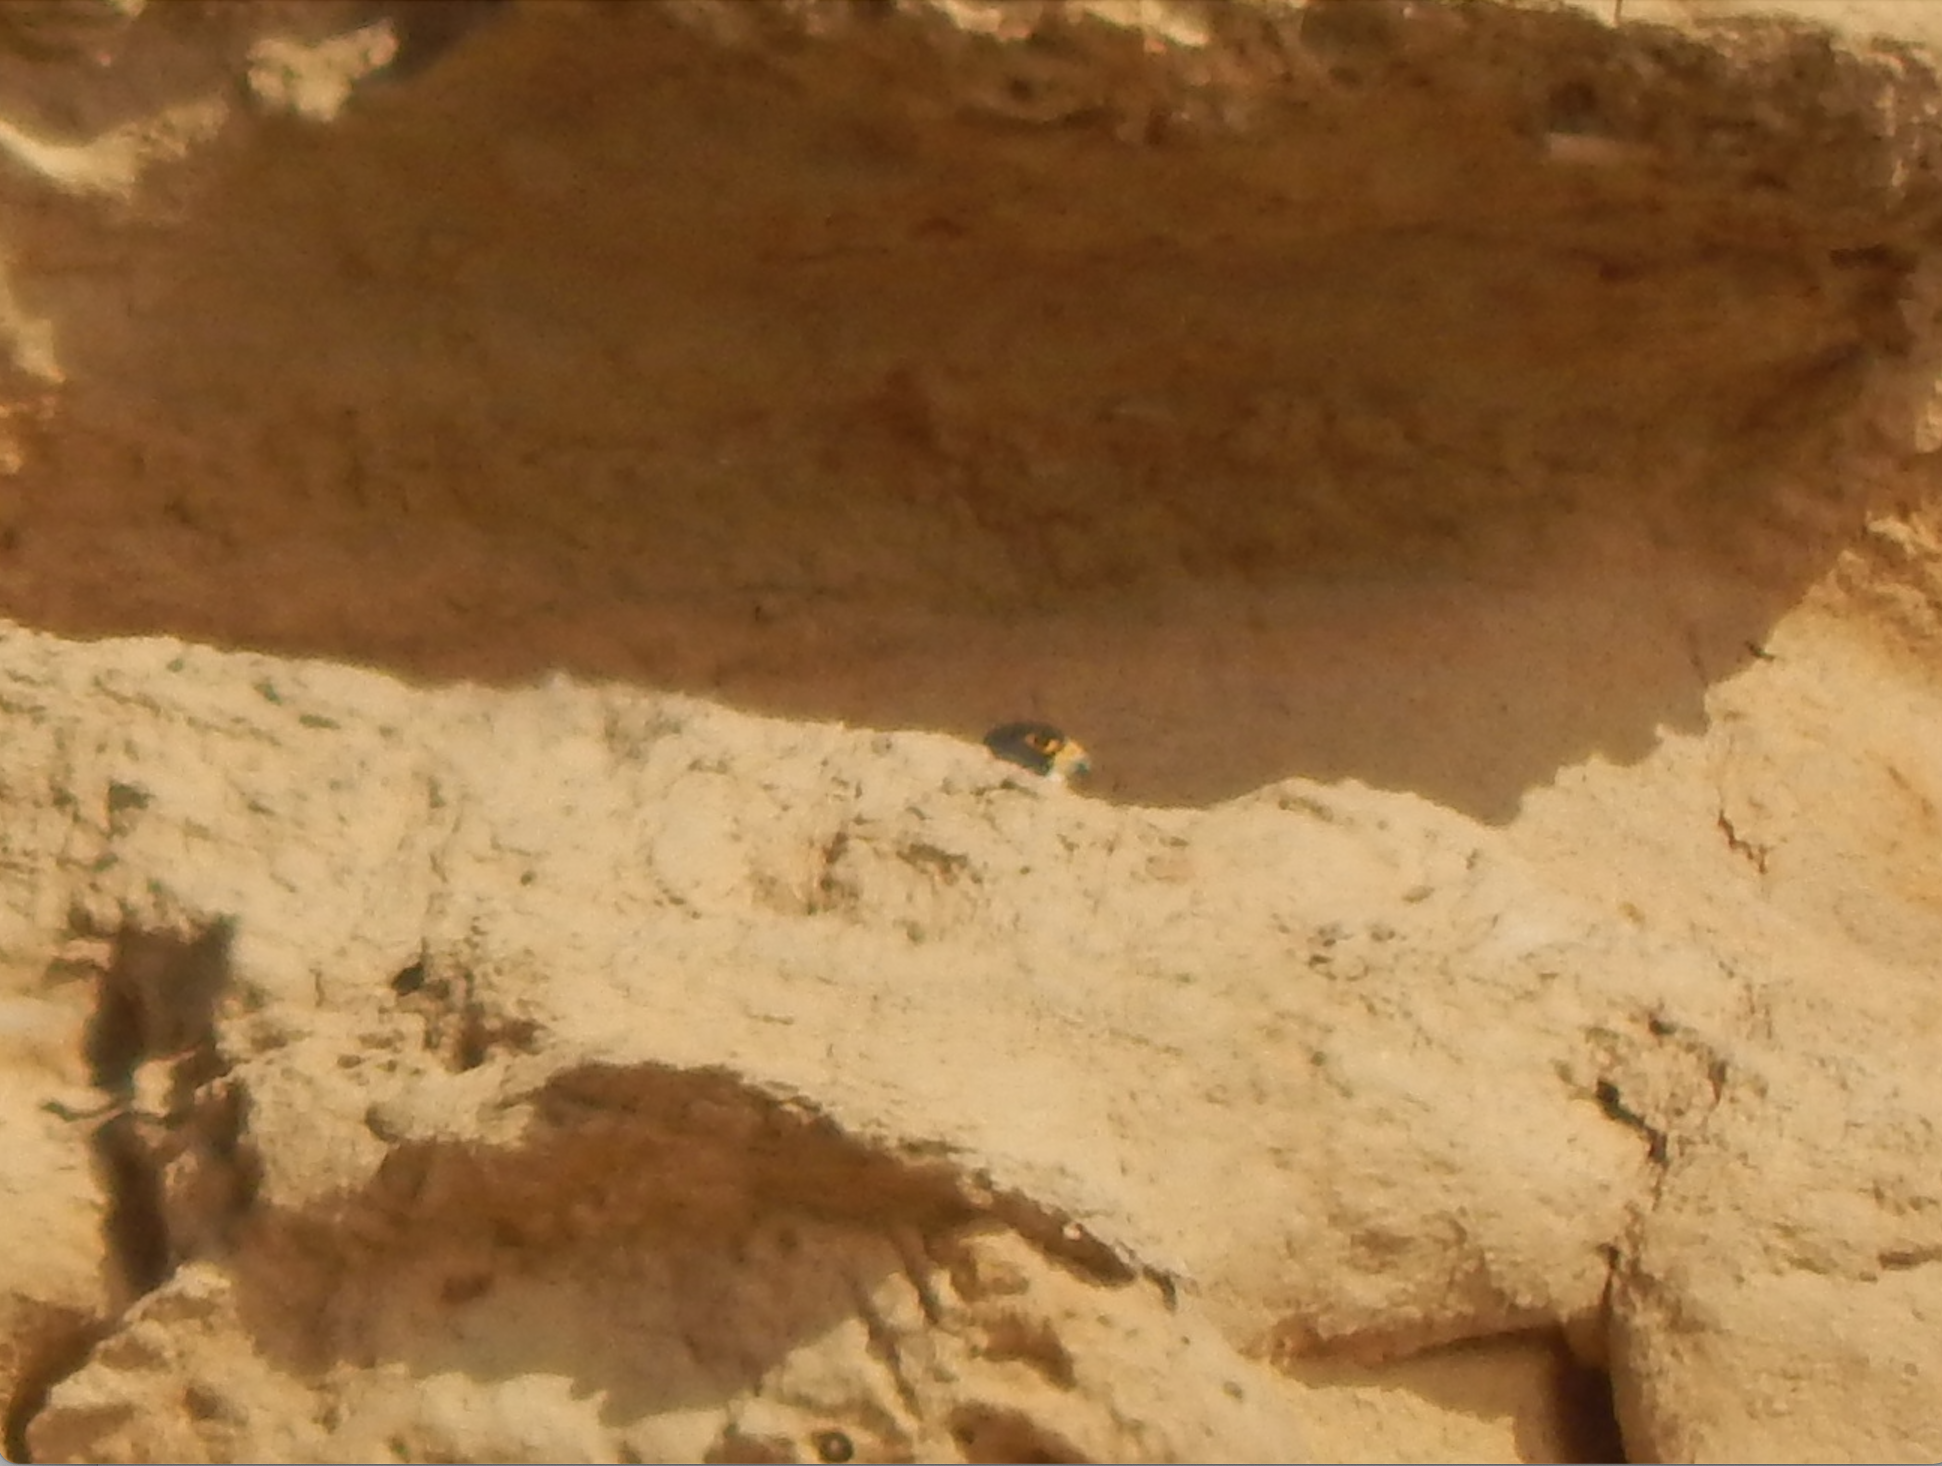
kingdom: Animalia
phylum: Chordata
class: Aves
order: Falconiformes
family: Falconidae
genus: Falco
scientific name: Falco peregrinus
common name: Peregrine falcon
